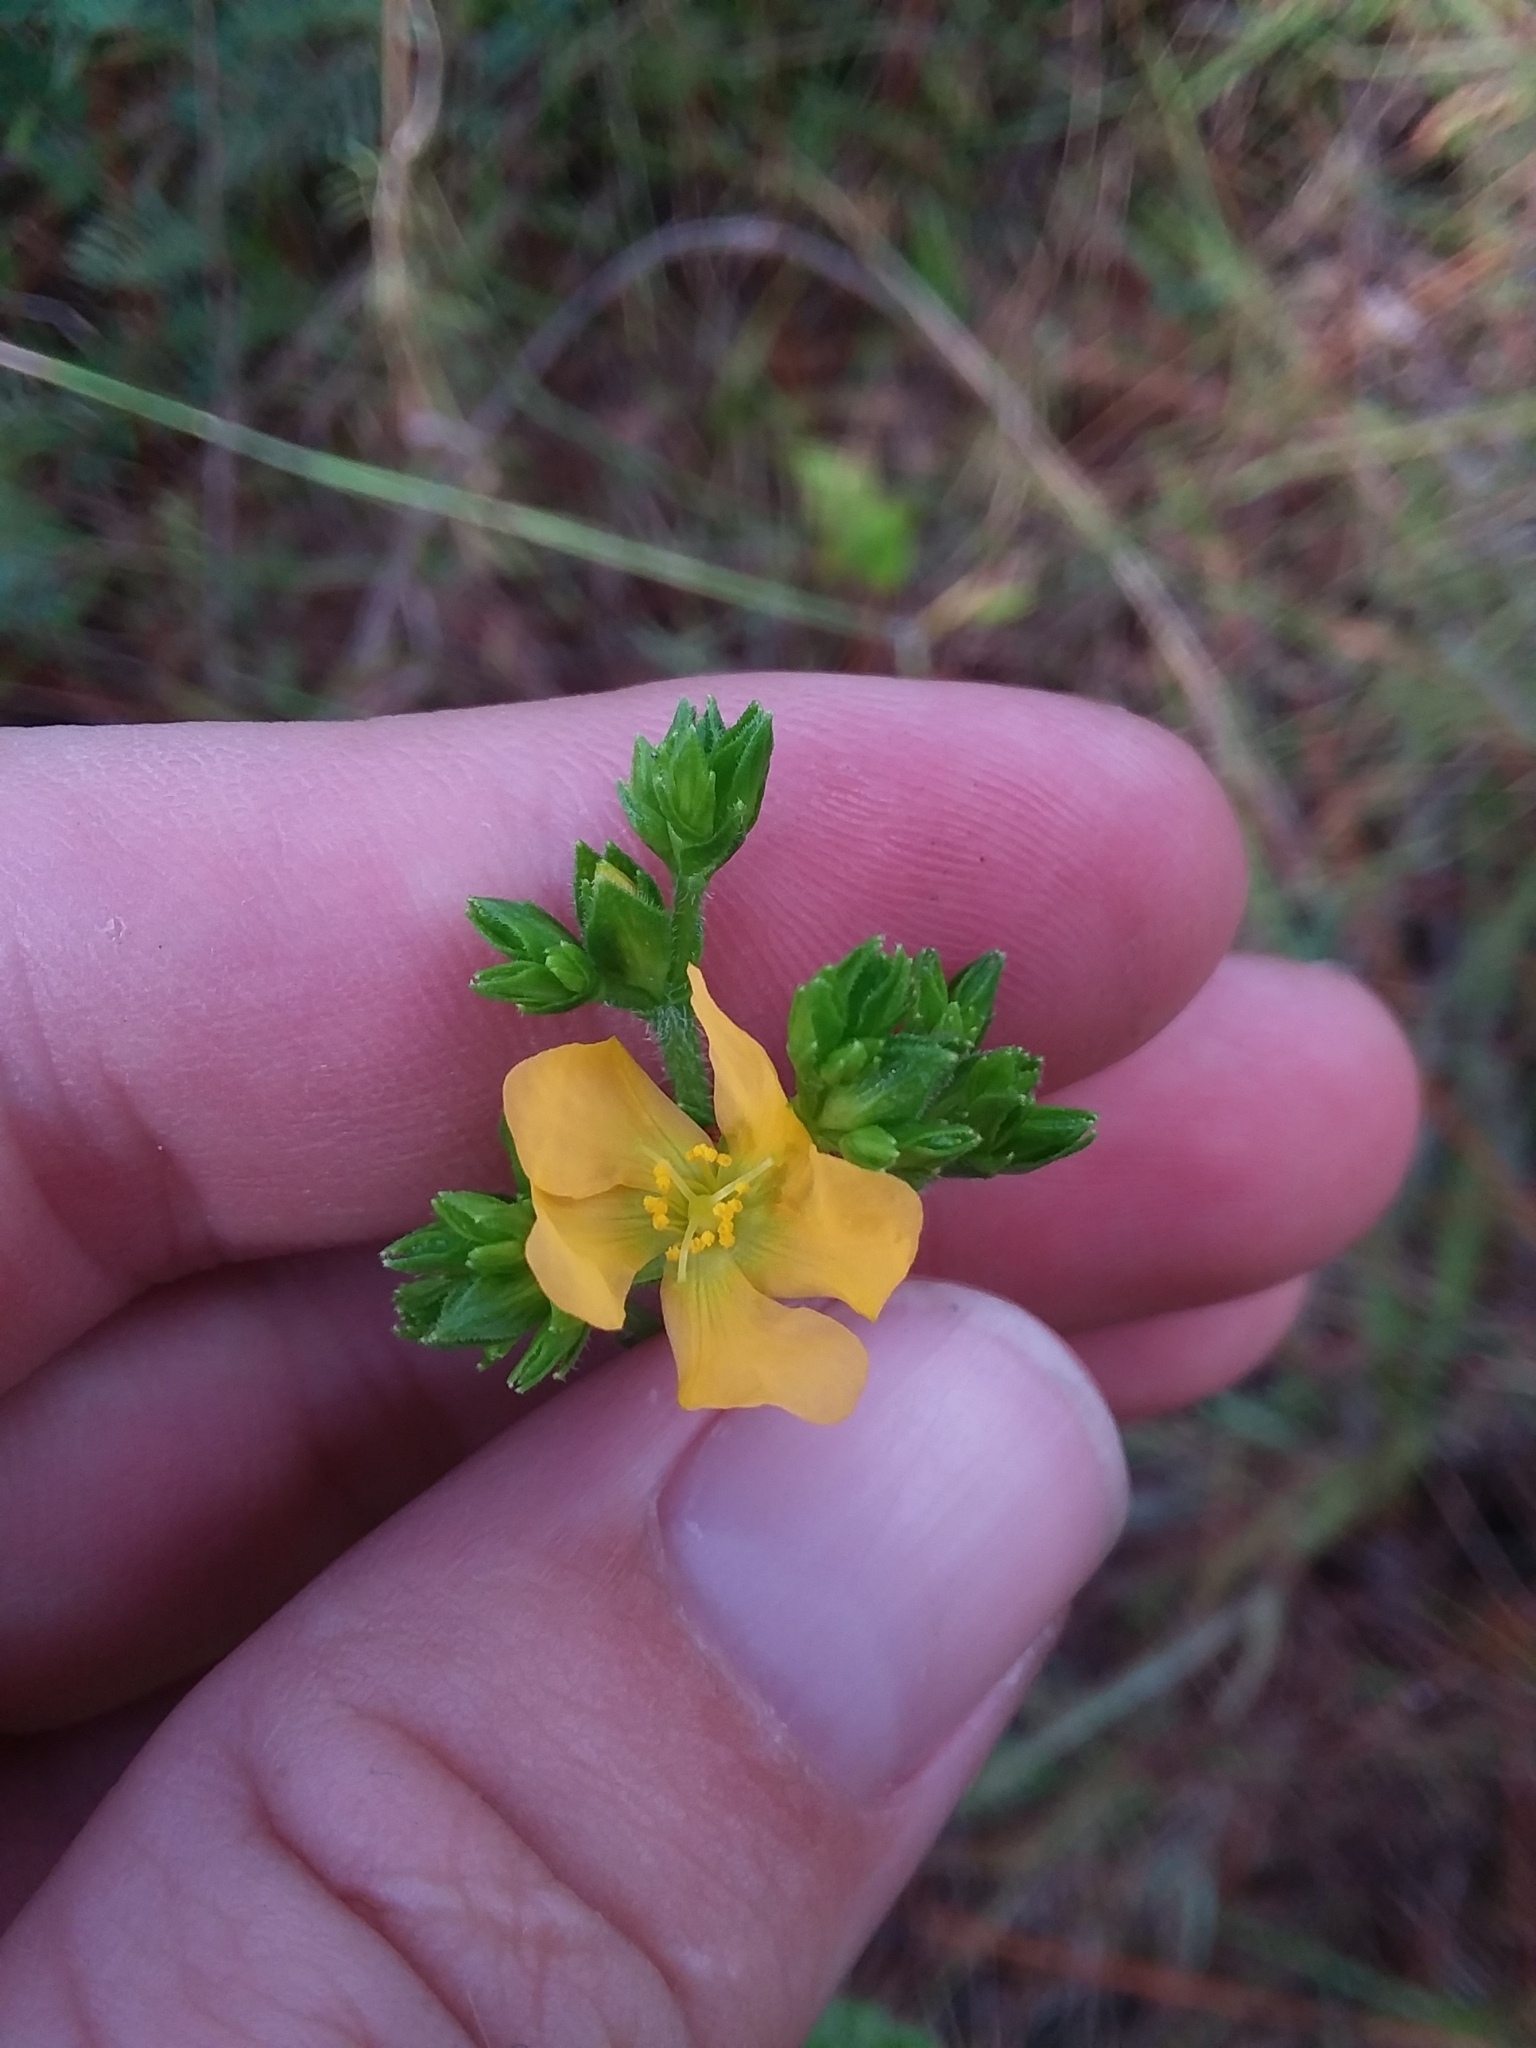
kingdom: Plantae
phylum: Tracheophyta
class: Magnoliopsida
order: Malpighiales
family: Hypericaceae
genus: Hypericum
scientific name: Hypericum setosum
